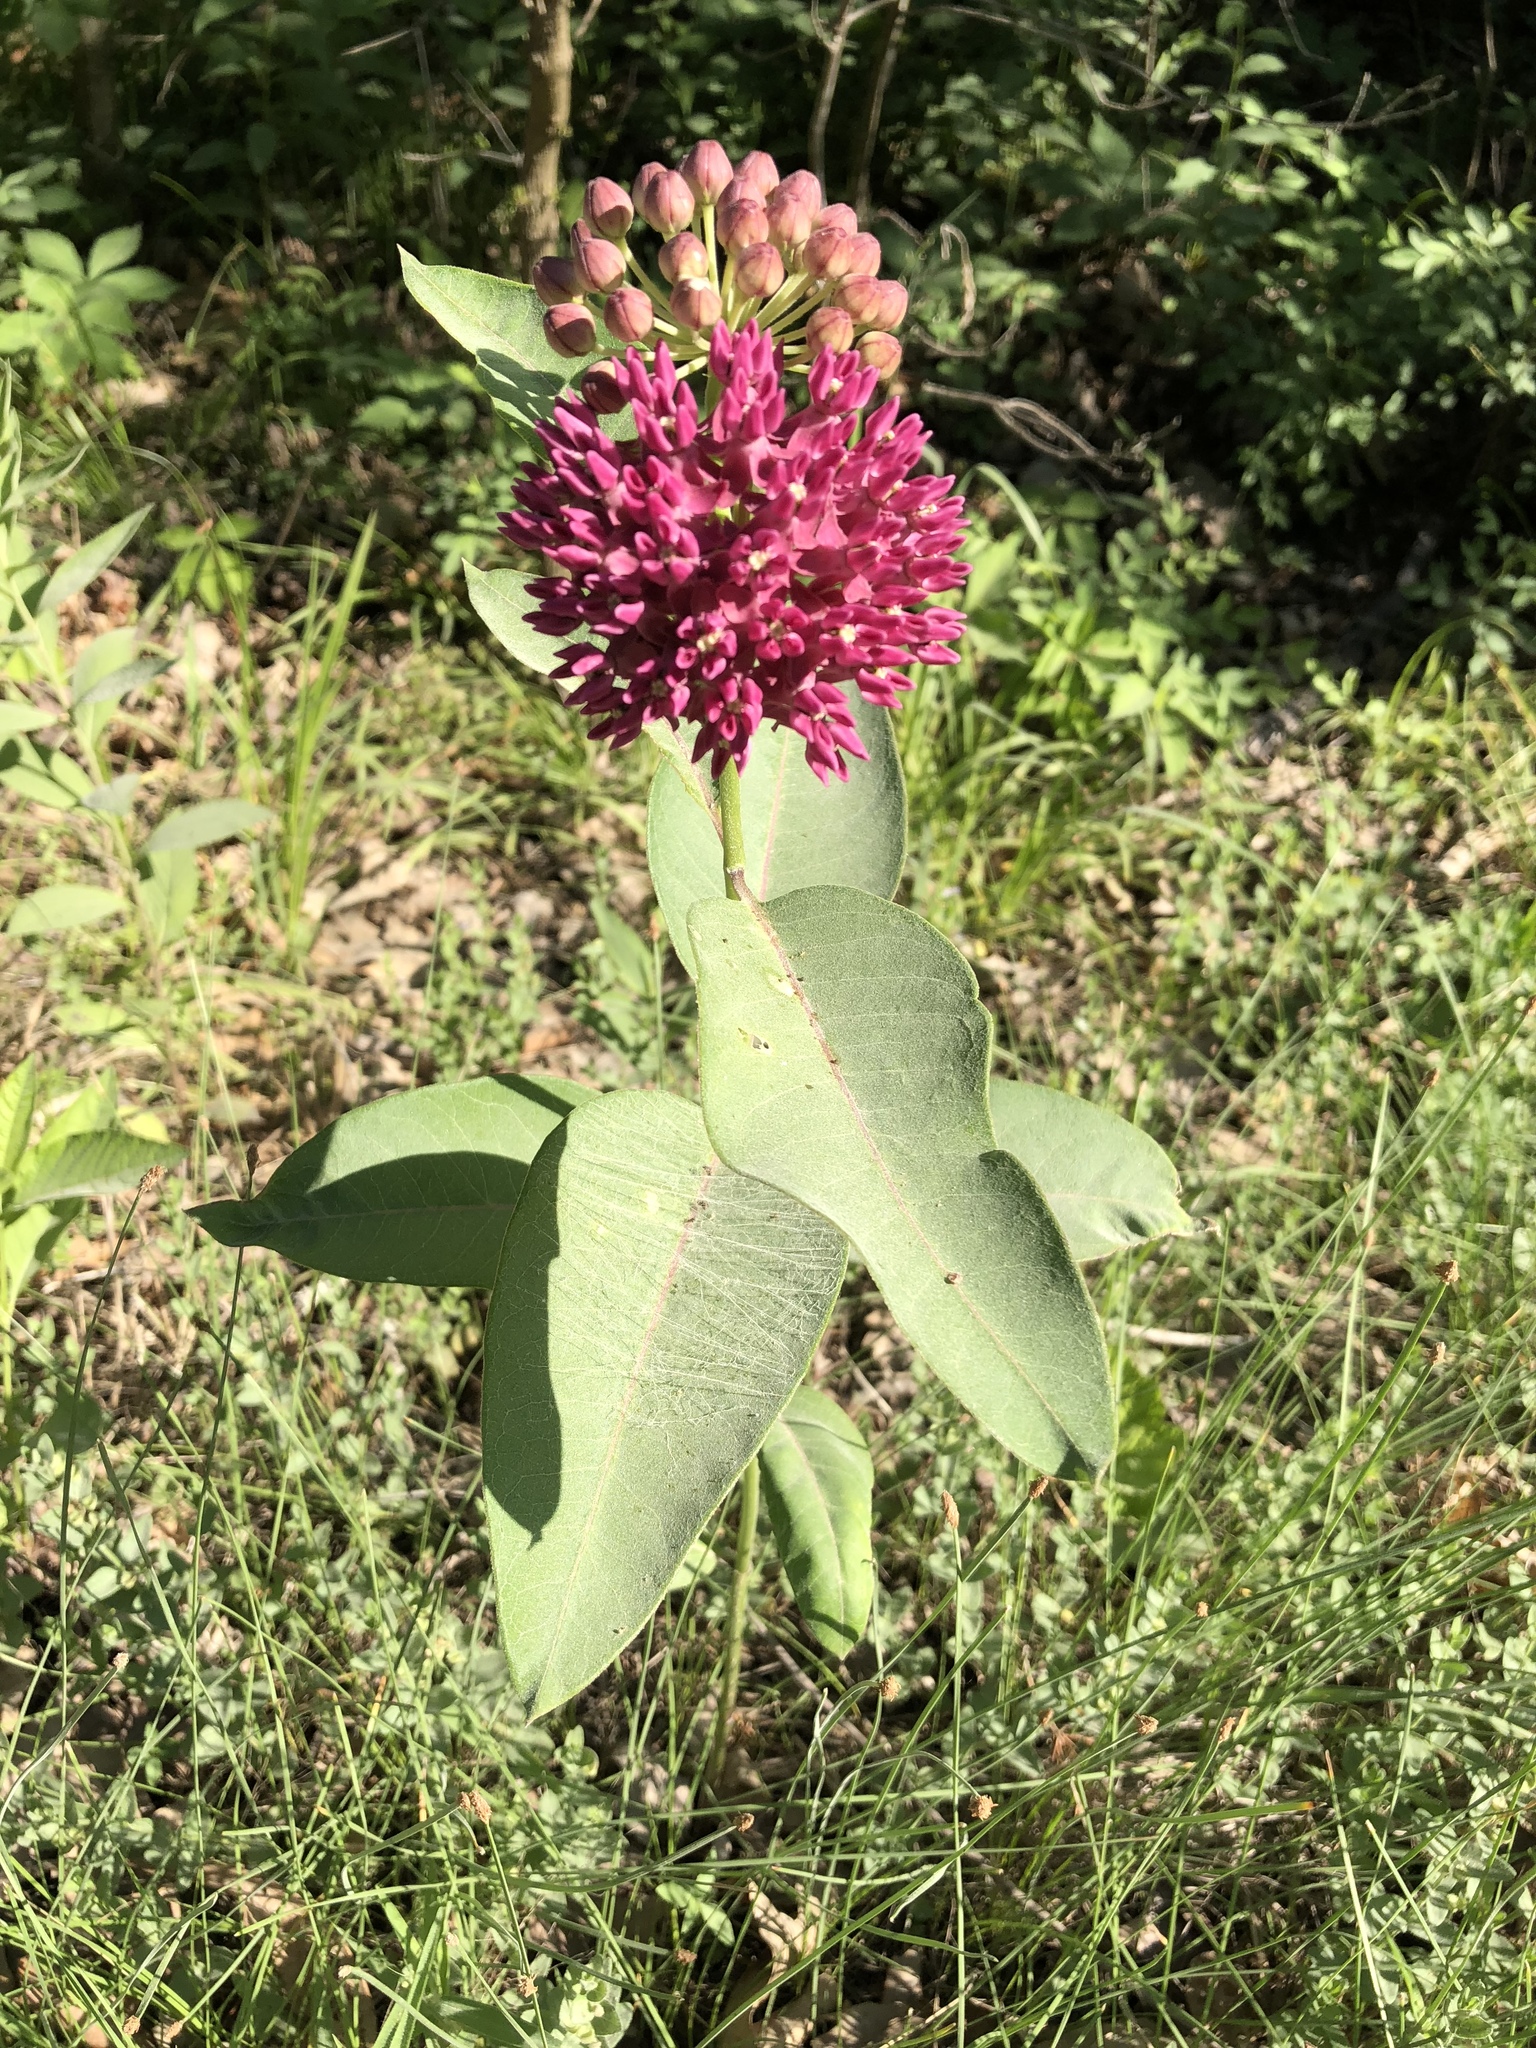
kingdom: Plantae
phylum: Tracheophyta
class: Magnoliopsida
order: Gentianales
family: Apocynaceae
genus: Asclepias
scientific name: Asclepias purpurascens
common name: Purple milkweed
